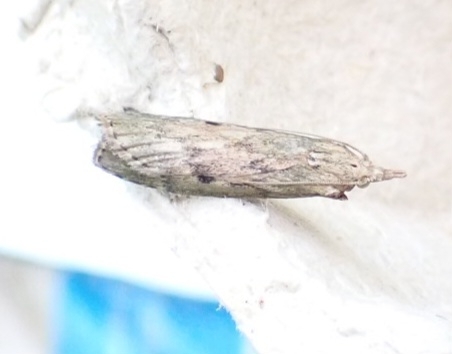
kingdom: Animalia
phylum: Arthropoda
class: Insecta
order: Lepidoptera
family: Pyralidae
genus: Aphomia
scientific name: Aphomia sociella
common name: Bee moth
